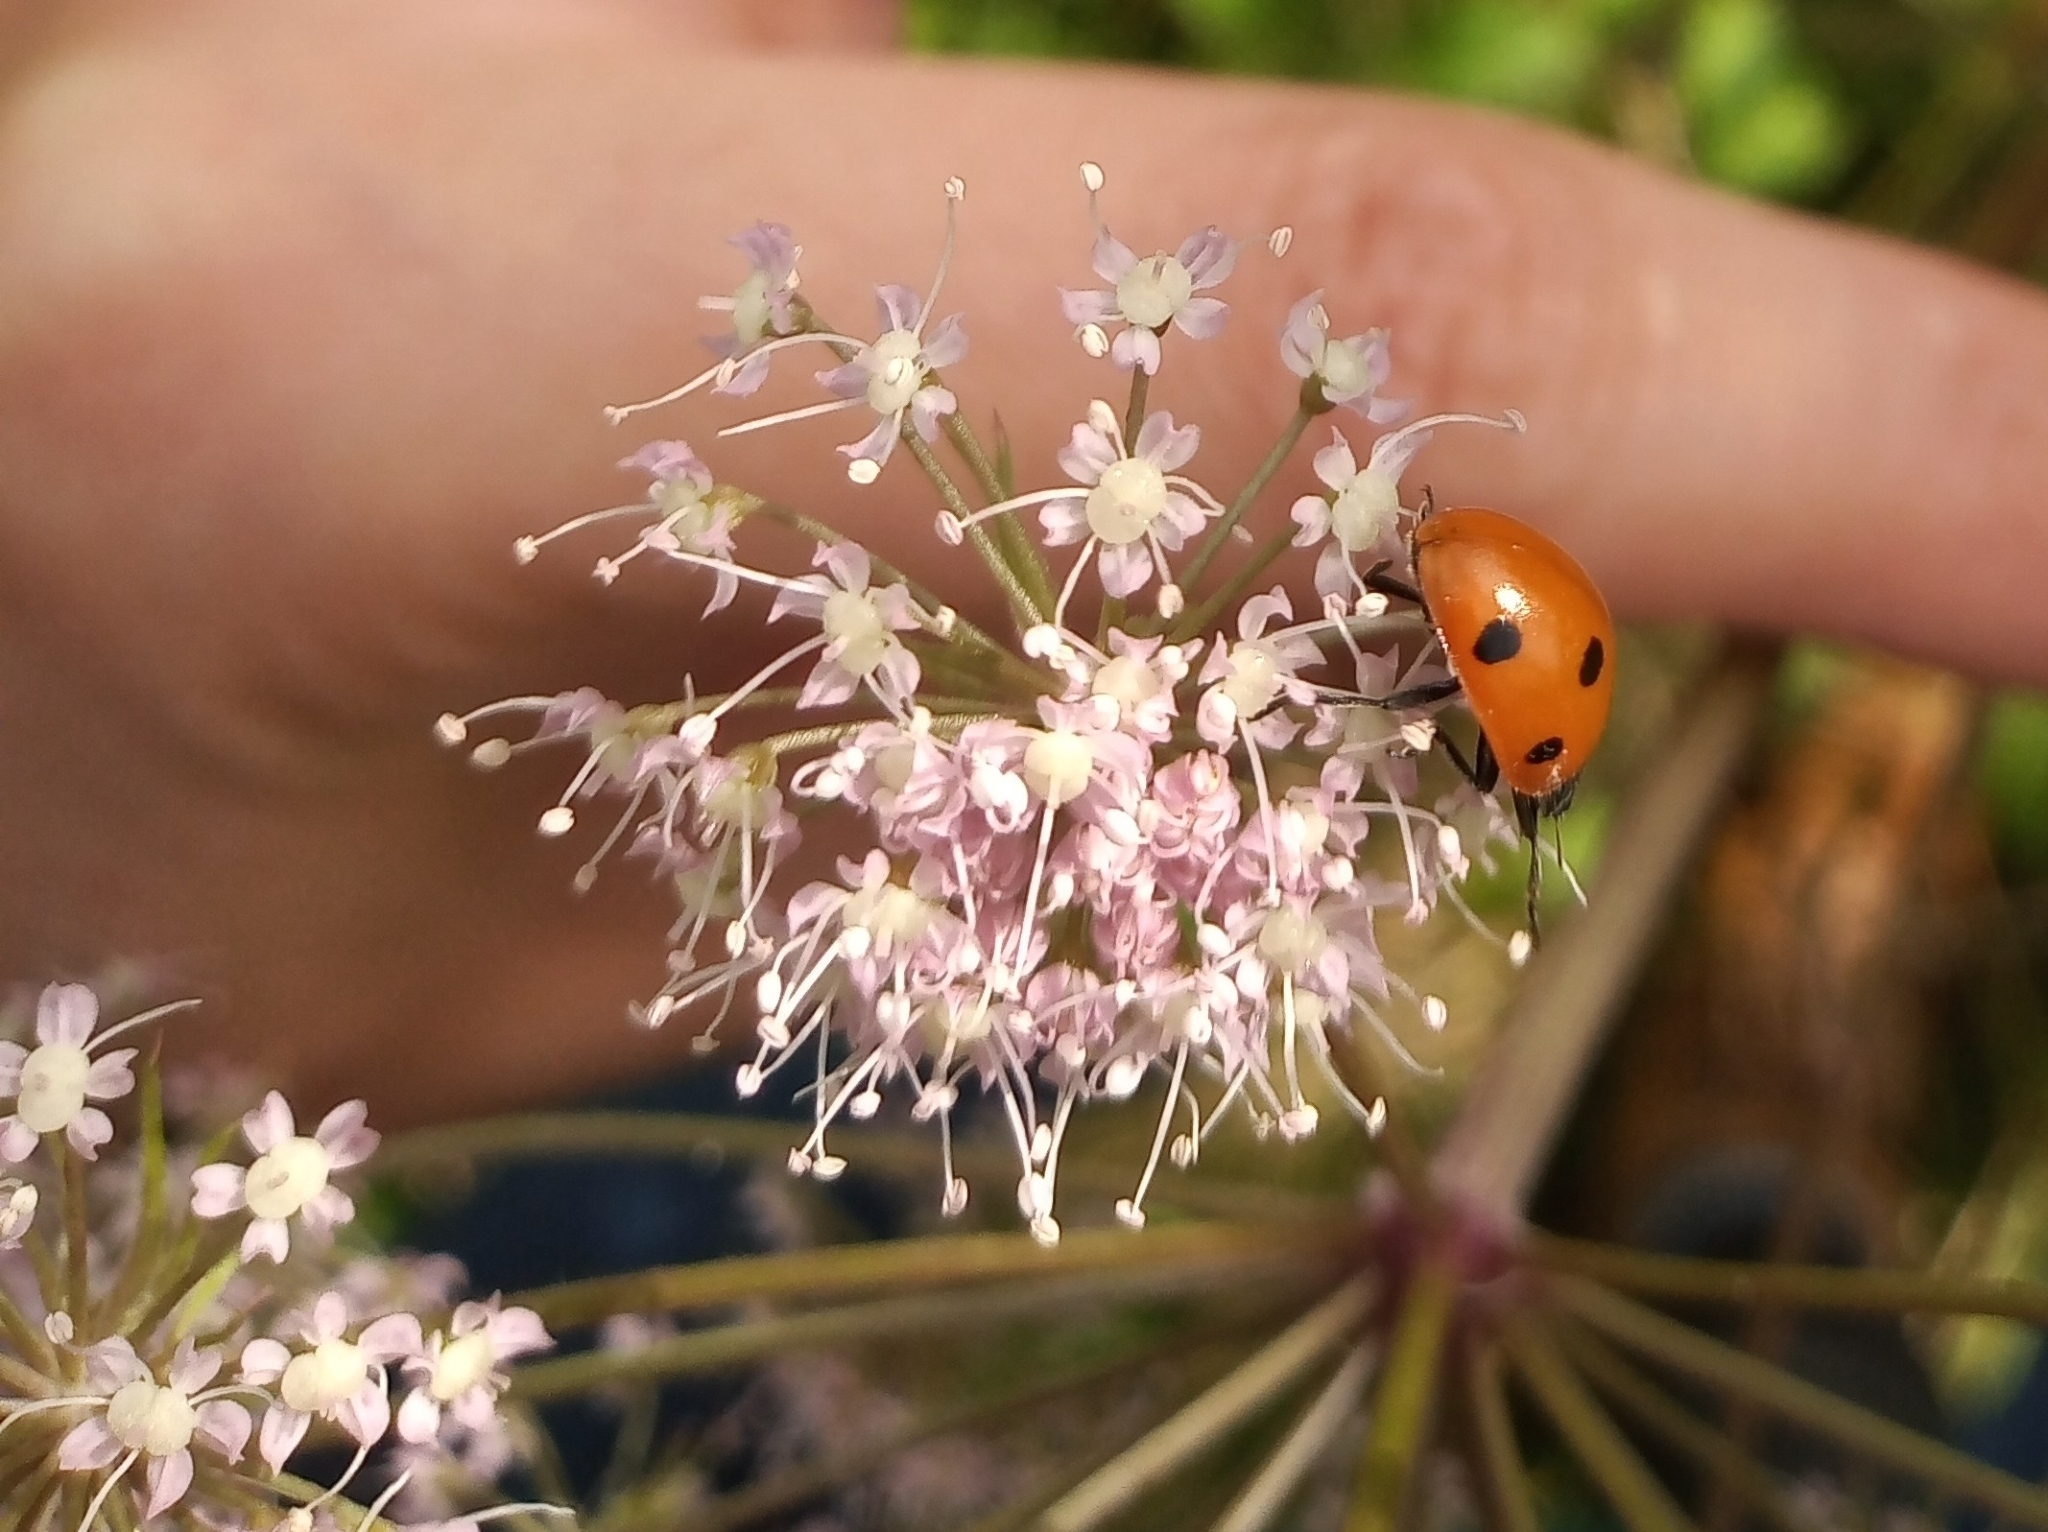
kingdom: Animalia
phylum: Arthropoda
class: Insecta
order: Coleoptera
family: Coccinellidae
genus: Coccinella
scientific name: Coccinella septempunctata
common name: Sevenspotted lady beetle
